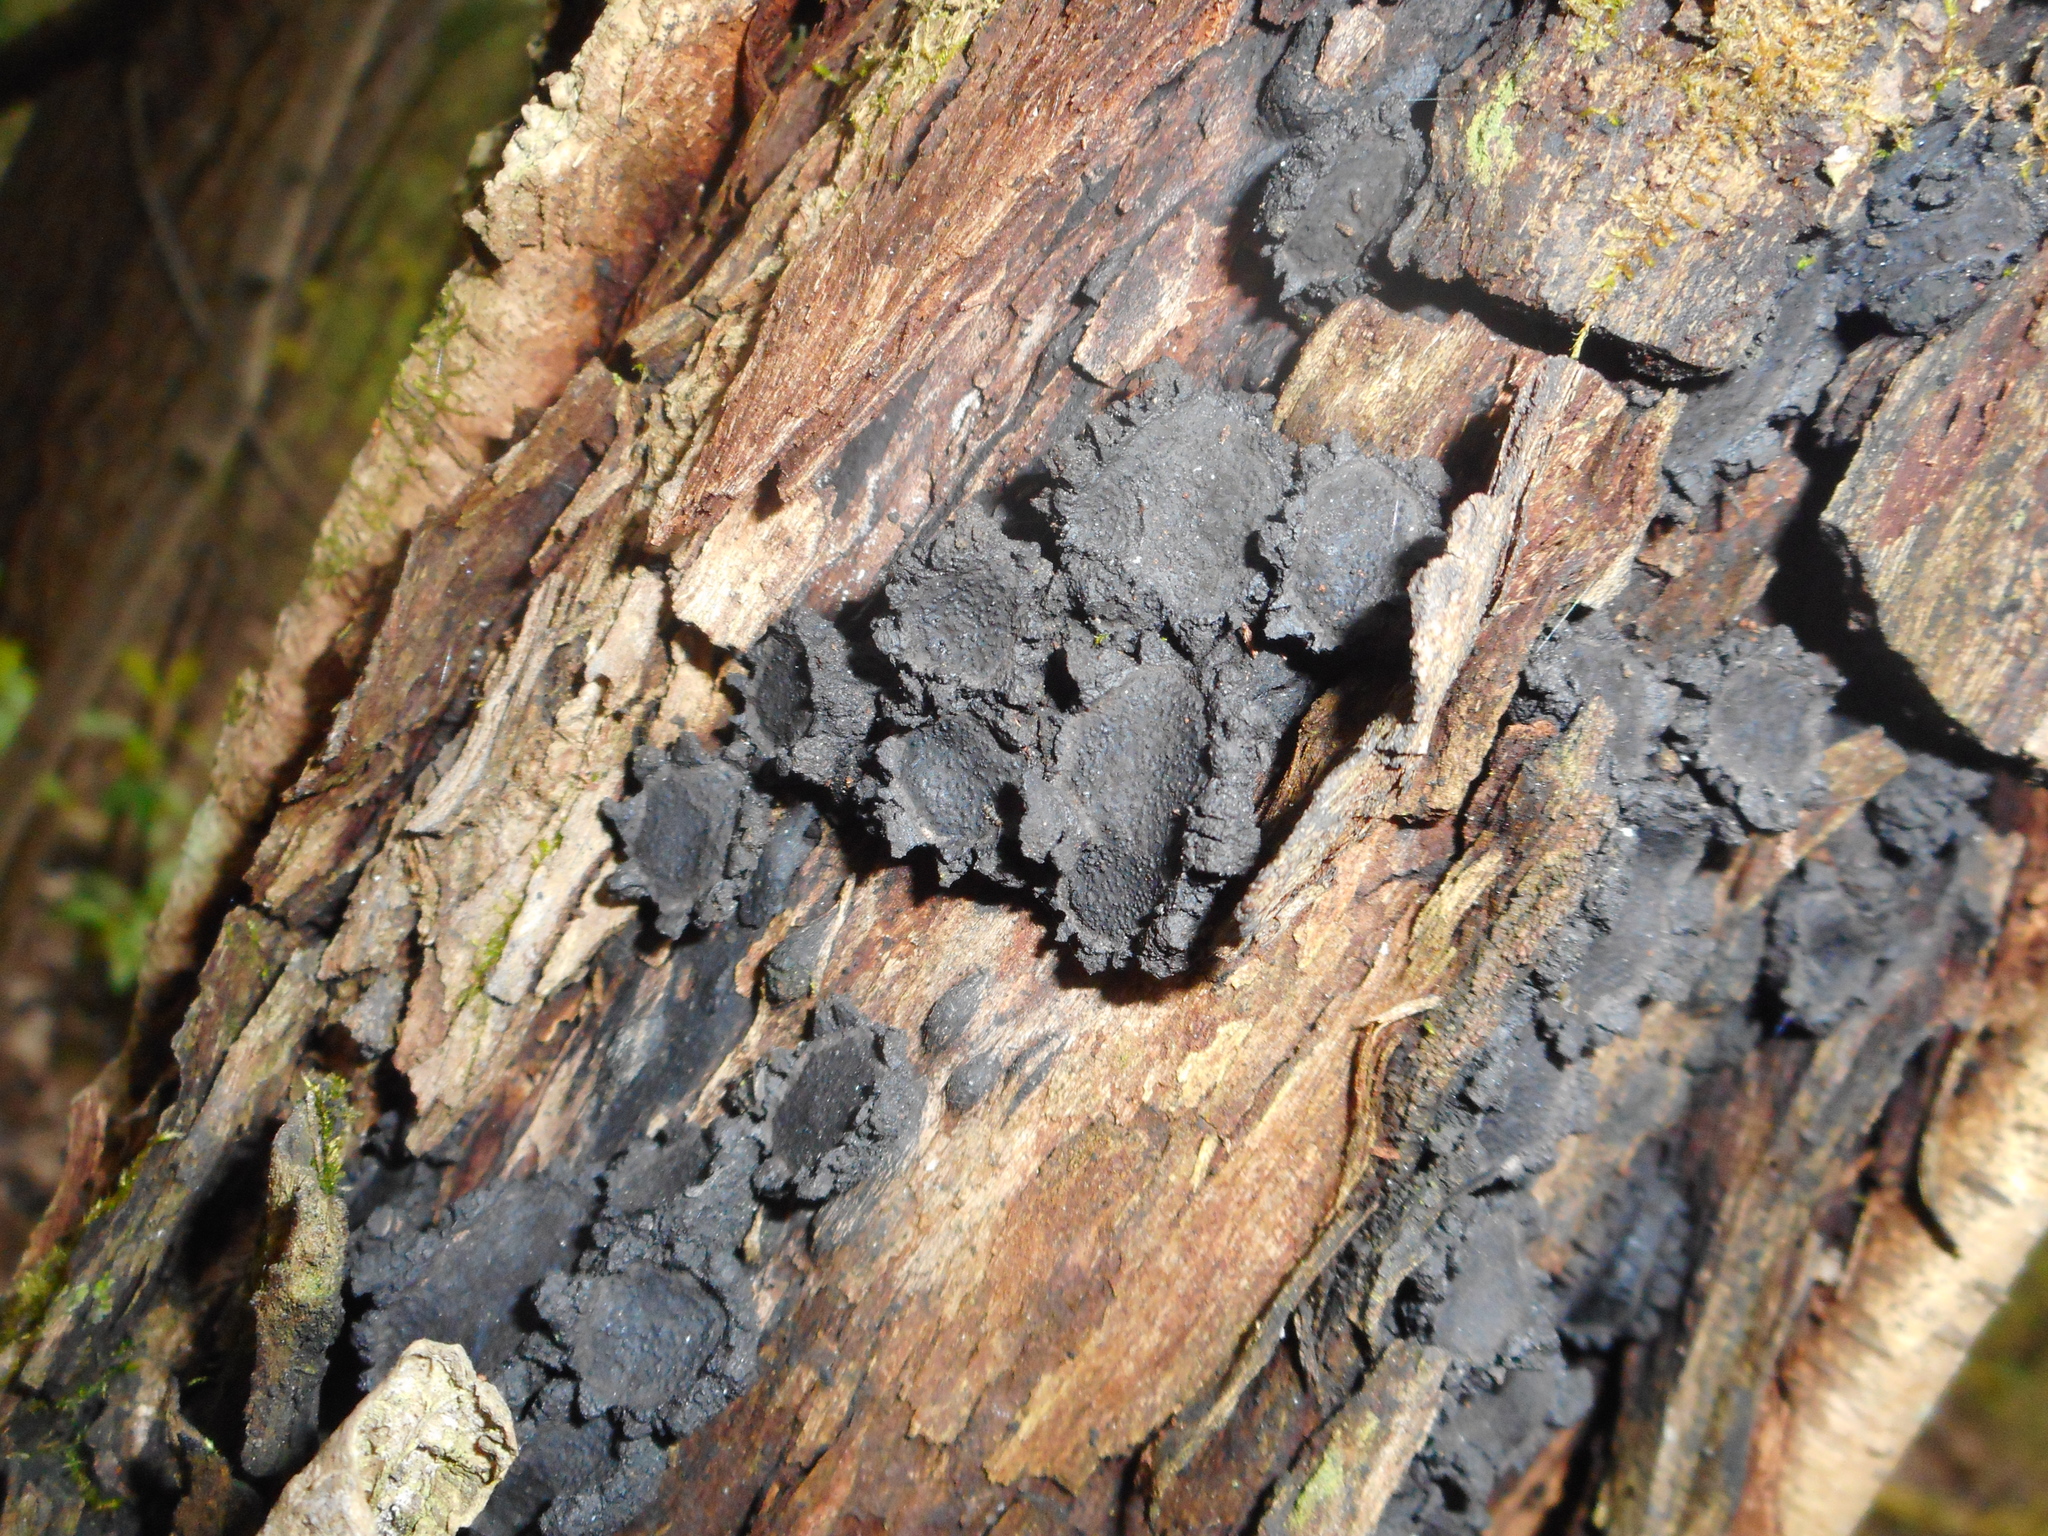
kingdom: Fungi
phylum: Ascomycota
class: Sordariomycetes
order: Xylariales
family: Graphostromataceae
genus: Biscogniauxia
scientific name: Biscogniauxia repanda
